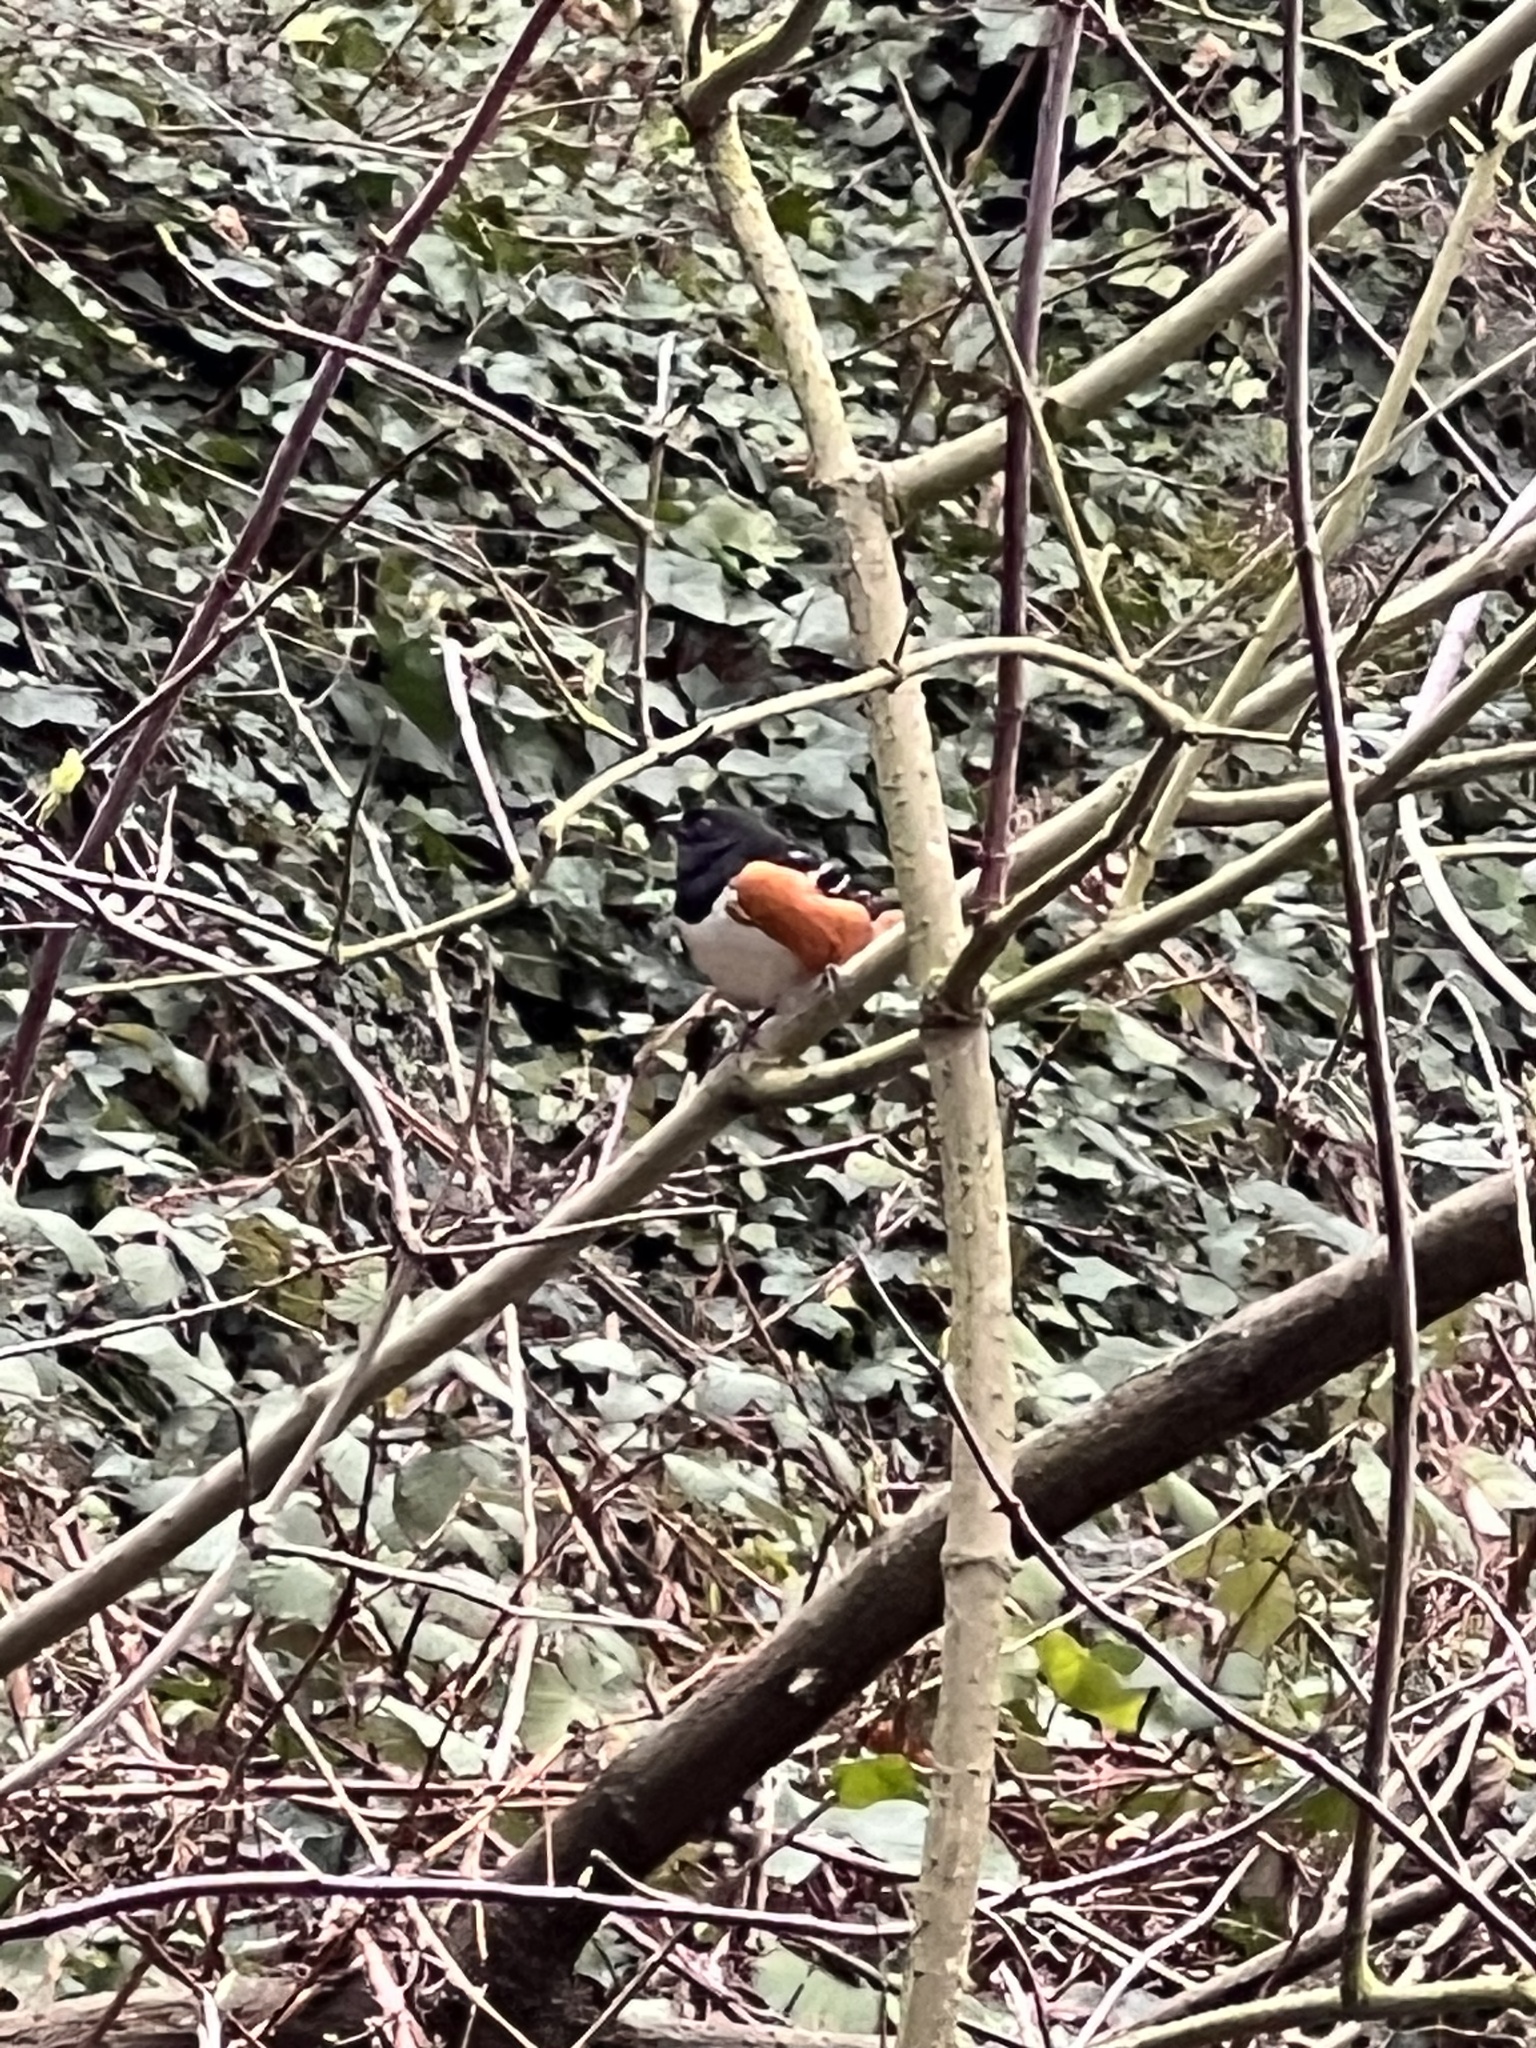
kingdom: Animalia
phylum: Chordata
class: Aves
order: Passeriformes
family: Passerellidae
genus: Pipilo
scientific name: Pipilo maculatus
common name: Spotted towhee
